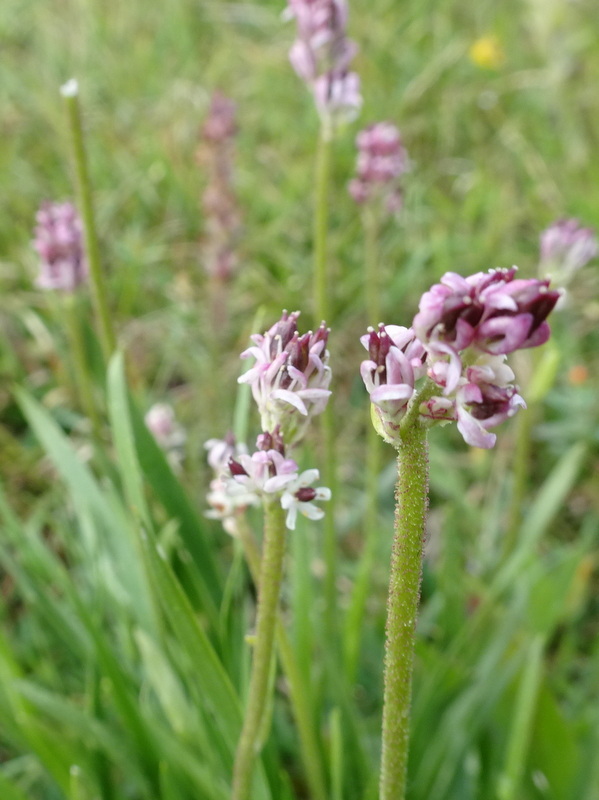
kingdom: Plantae
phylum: Tracheophyta
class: Liliopsida
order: Alismatales
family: Tofieldiaceae
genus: Triantha
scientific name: Triantha occidentalis
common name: Western false asphodel
